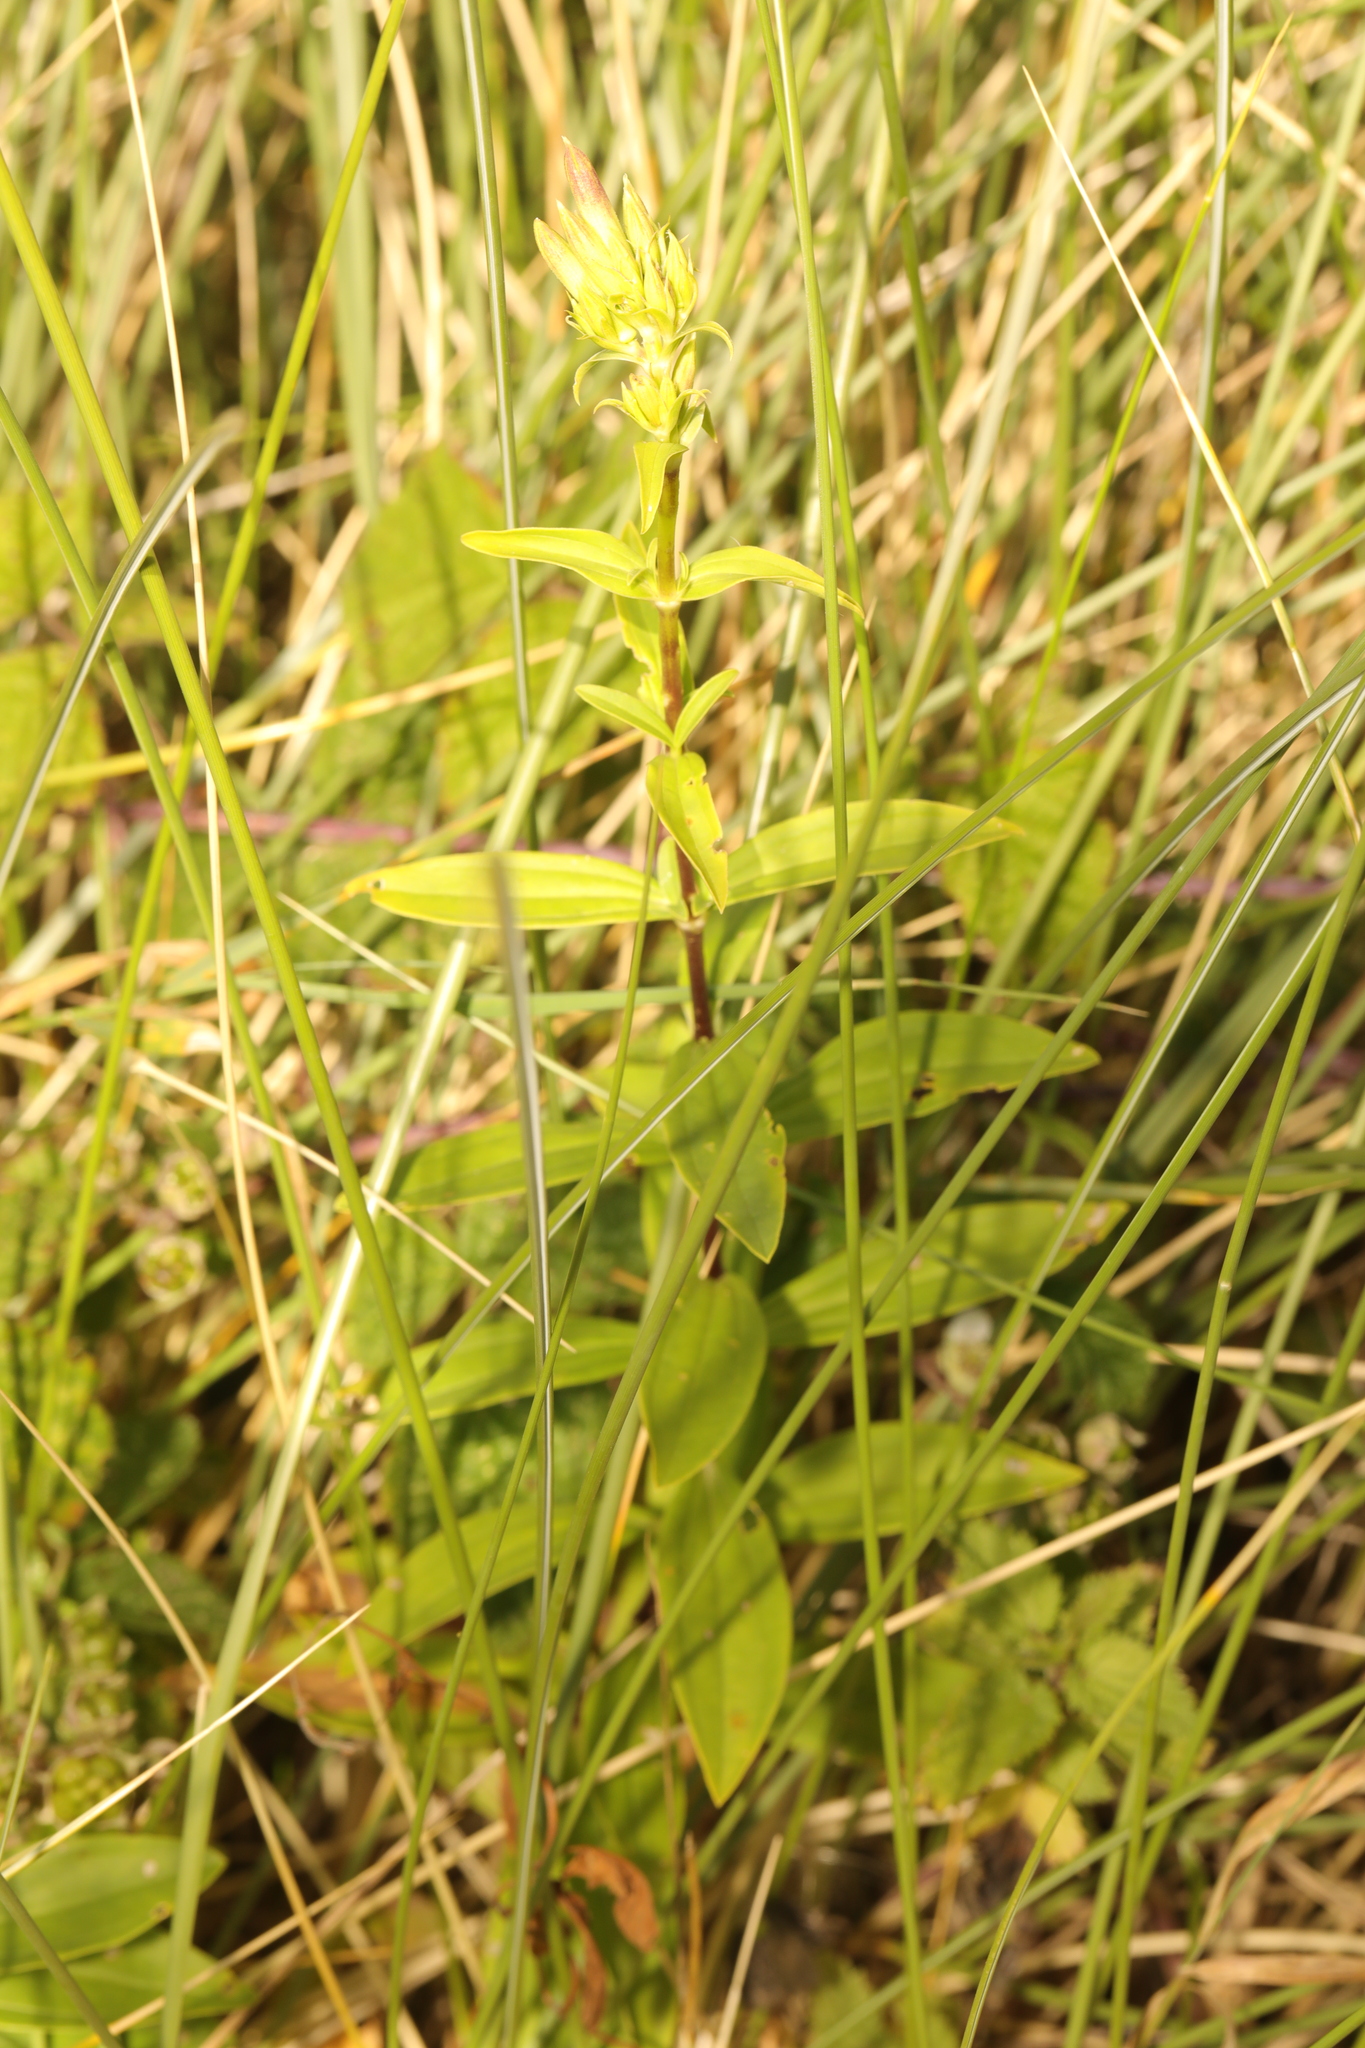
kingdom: Plantae
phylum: Tracheophyta
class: Magnoliopsida
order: Caryophyllales
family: Caryophyllaceae
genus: Saponaria
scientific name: Saponaria officinalis
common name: Soapwort
